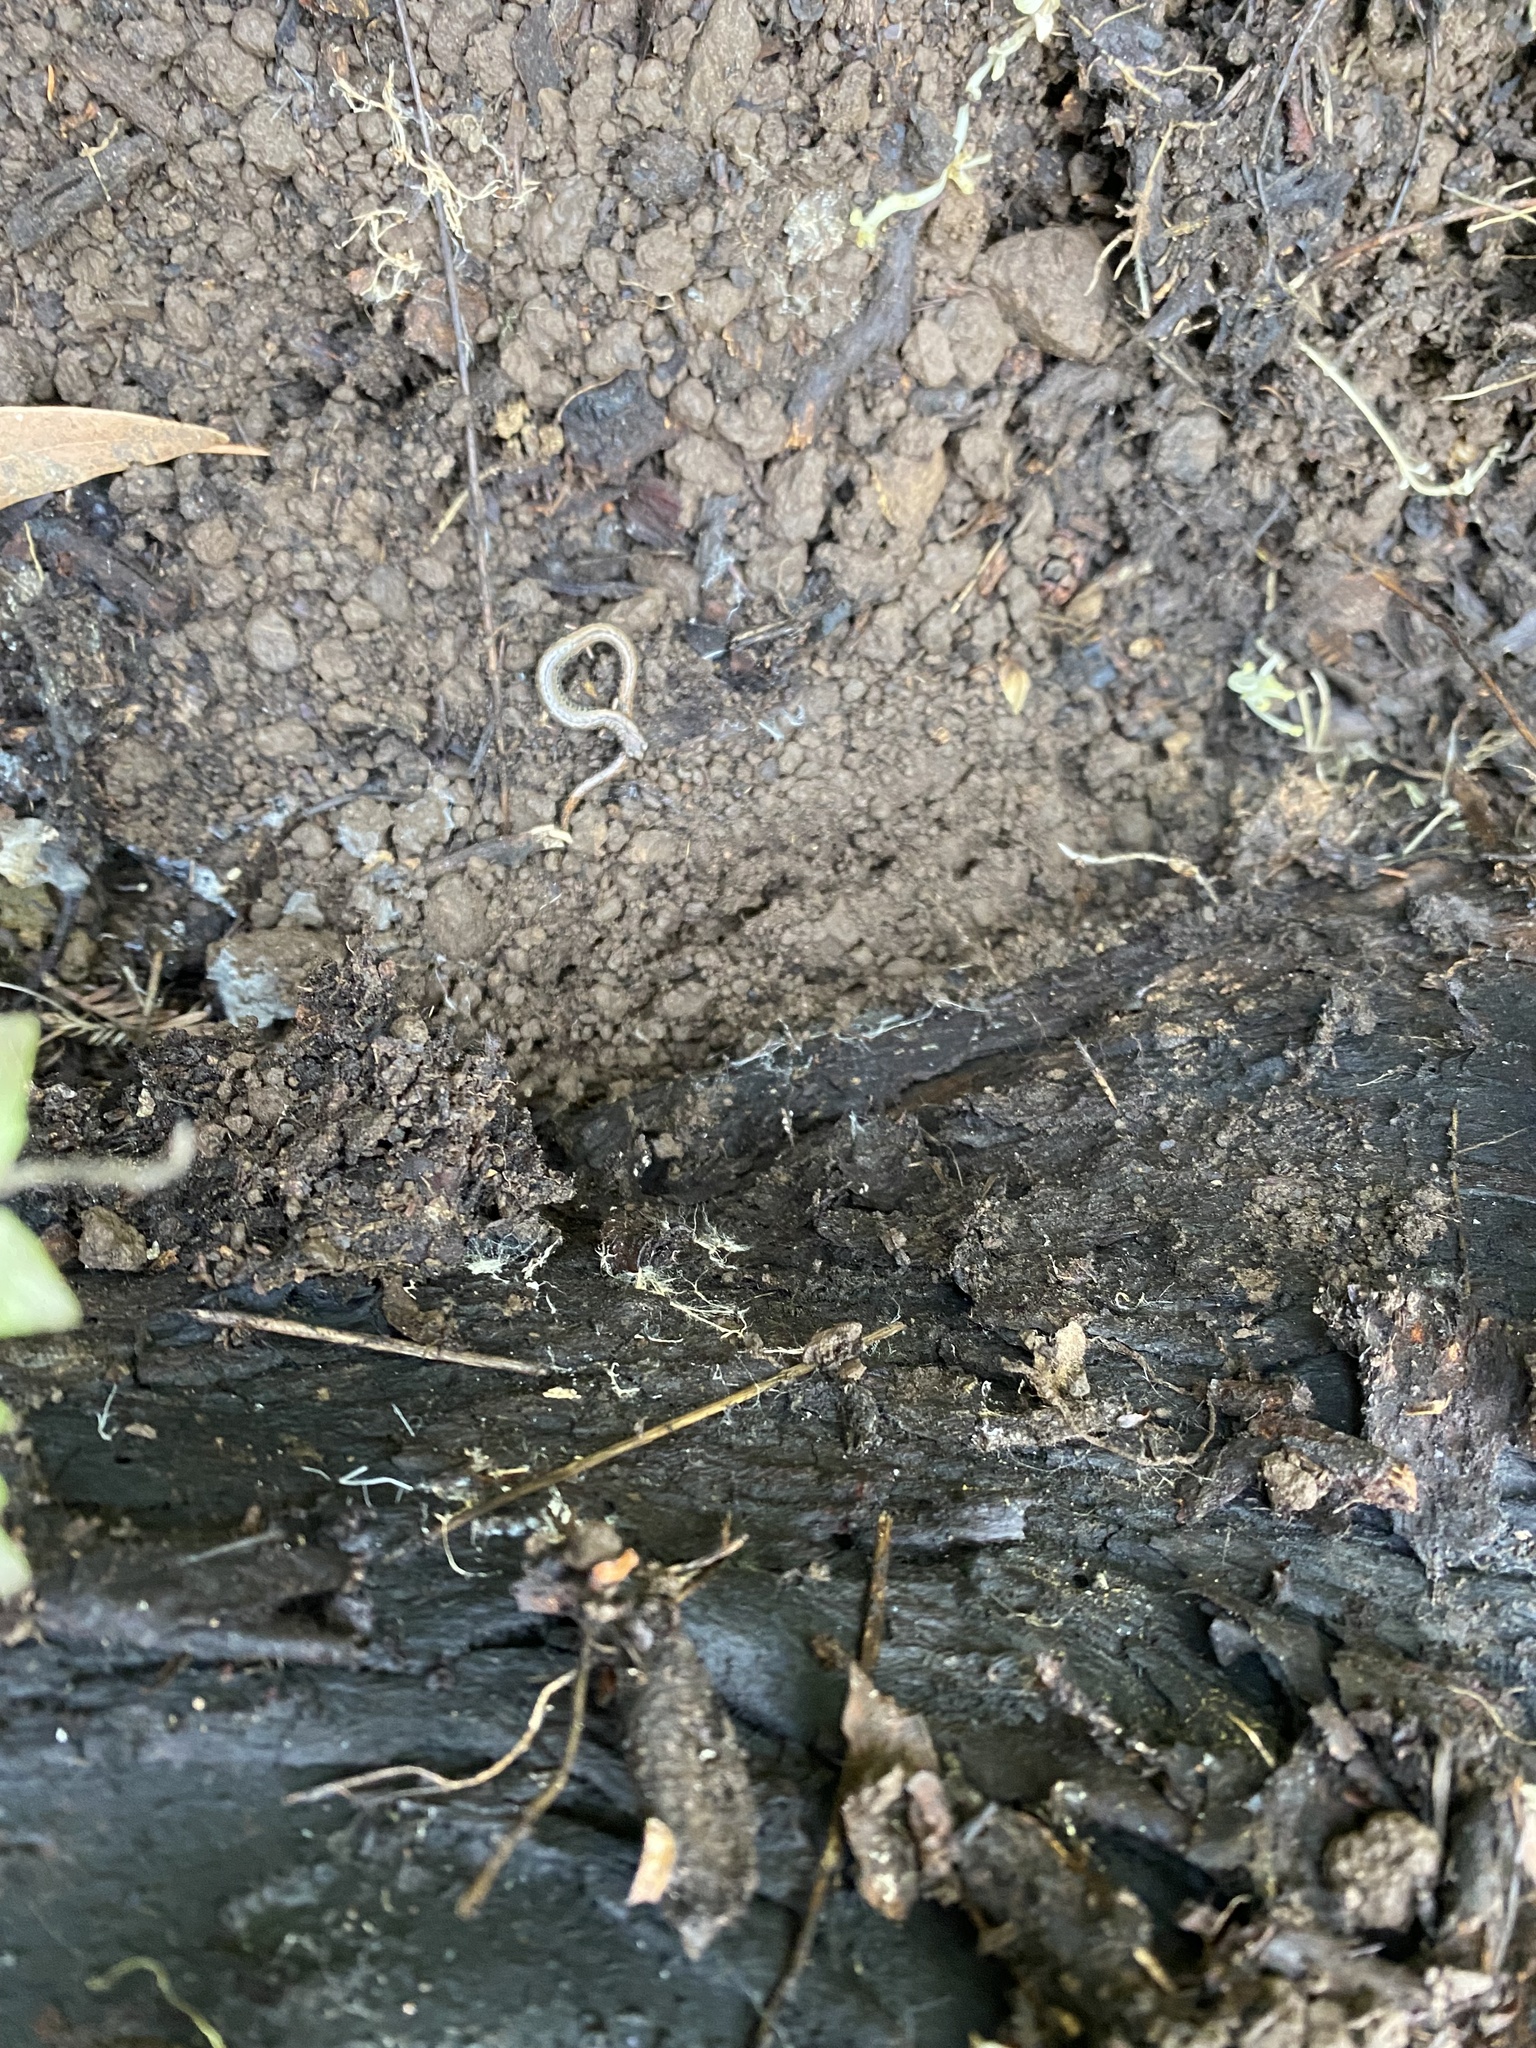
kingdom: Animalia
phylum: Chordata
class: Amphibia
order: Caudata
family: Plethodontidae
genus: Batrachoseps
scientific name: Batrachoseps attenuatus
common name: California slender salamander
